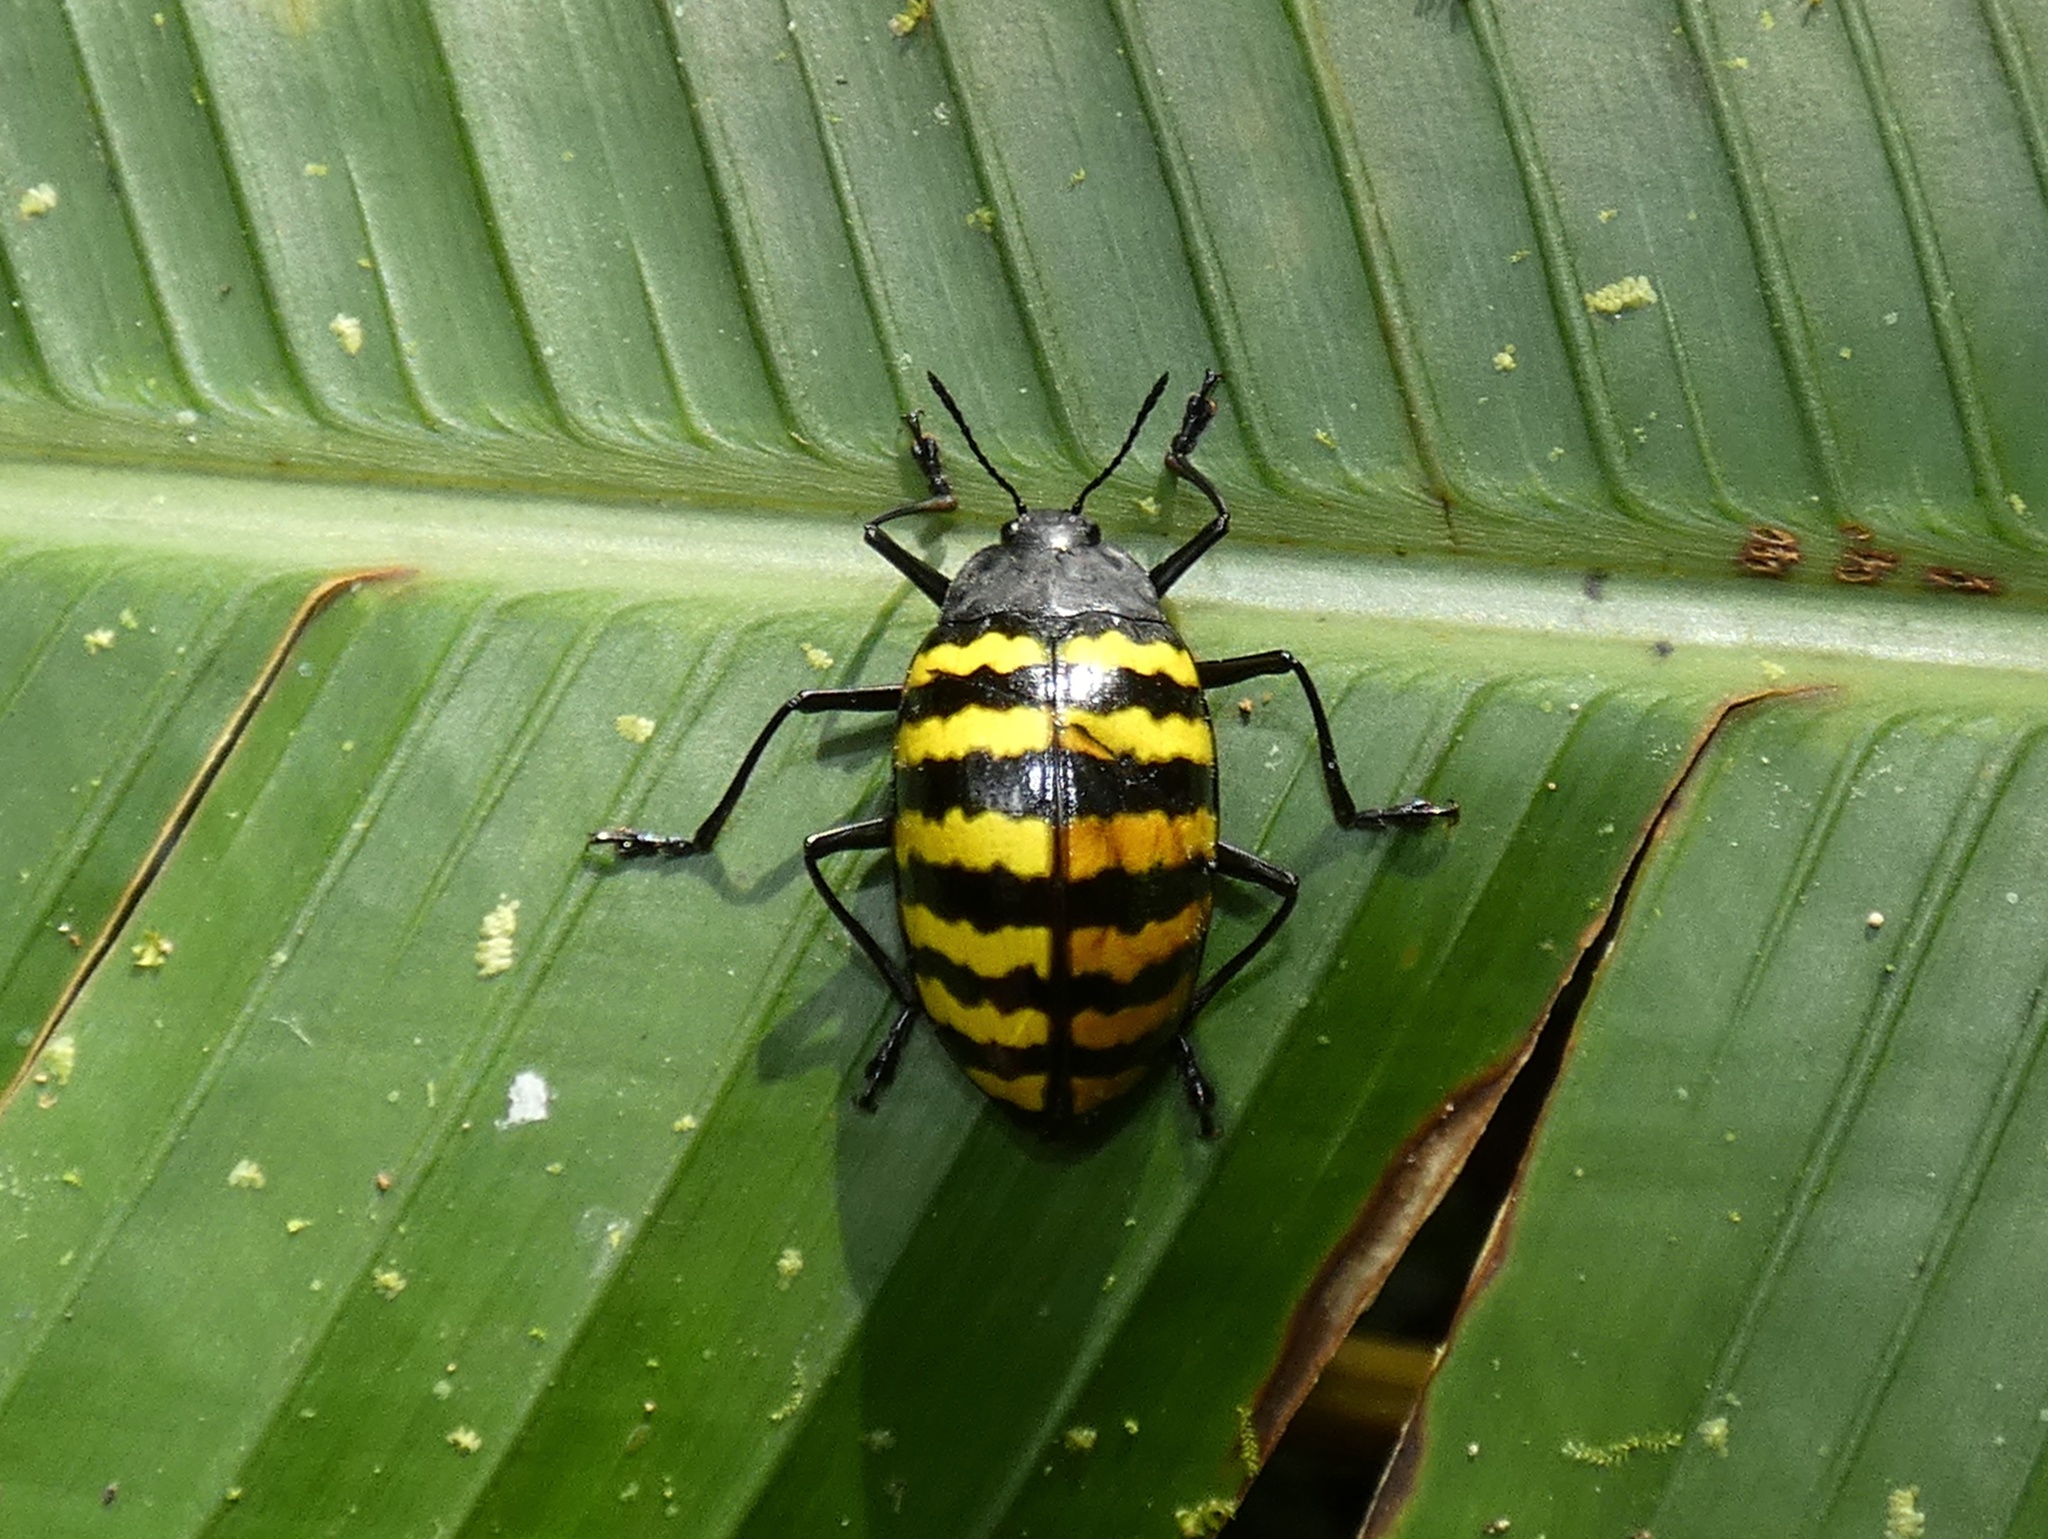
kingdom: Animalia
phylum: Arthropoda
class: Insecta
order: Coleoptera
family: Erotylidae
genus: Erotylus
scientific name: Erotylus
